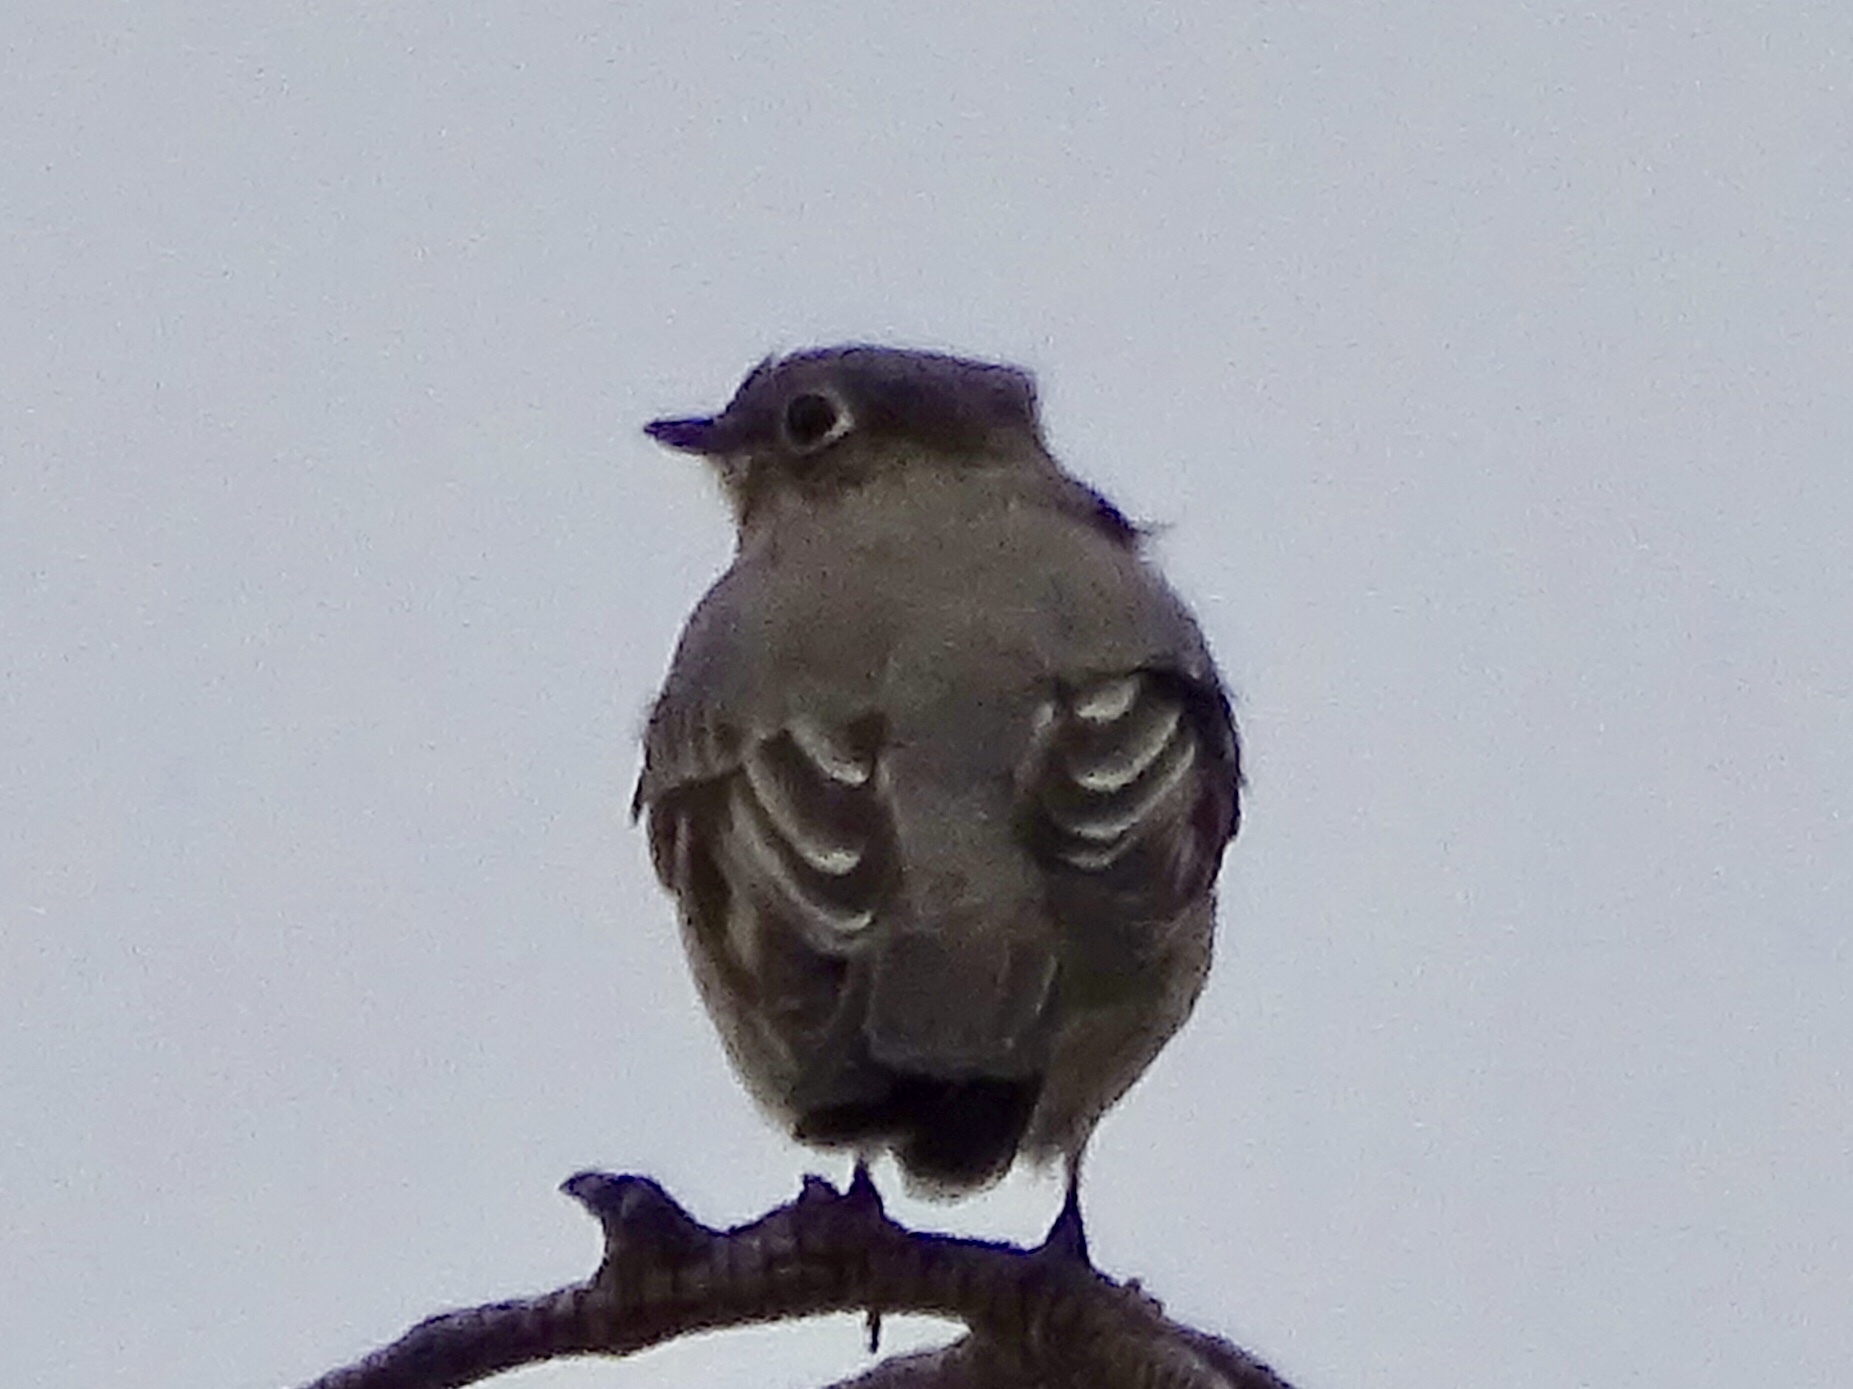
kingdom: Animalia
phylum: Chordata
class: Aves
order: Passeriformes
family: Turdidae
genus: Myadestes
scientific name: Myadestes townsendi
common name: Townsend's solitaire
